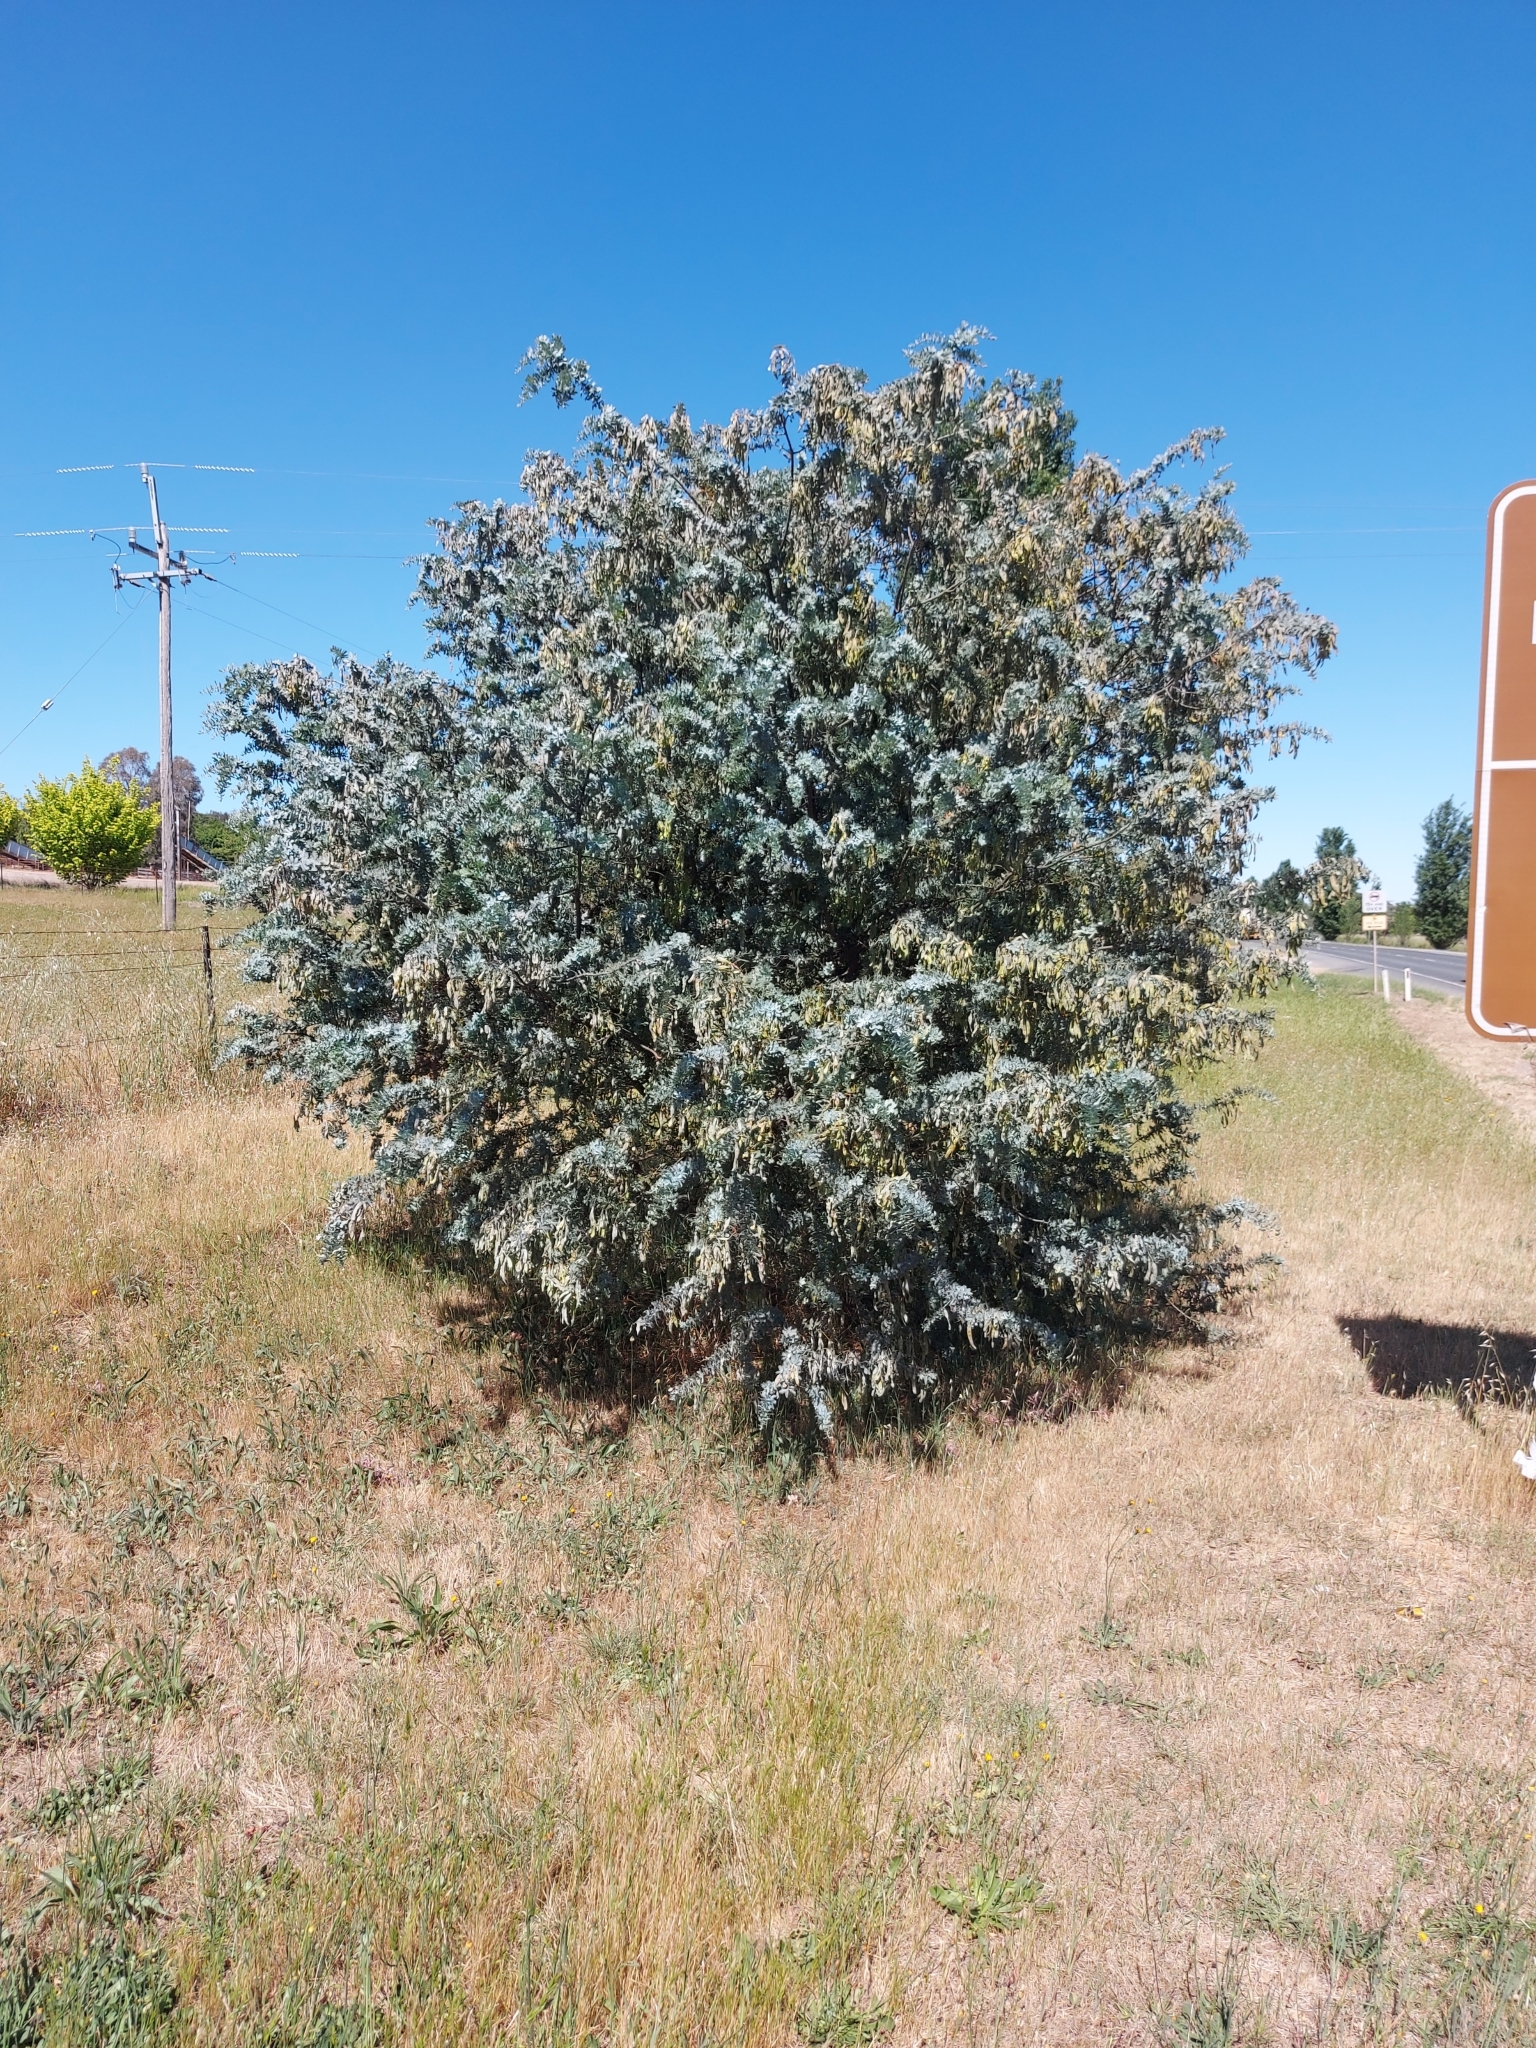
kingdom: Plantae
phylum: Tracheophyta
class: Magnoliopsida
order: Fabales
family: Fabaceae
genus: Acacia
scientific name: Acacia baileyana
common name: Cootamundra wattle
